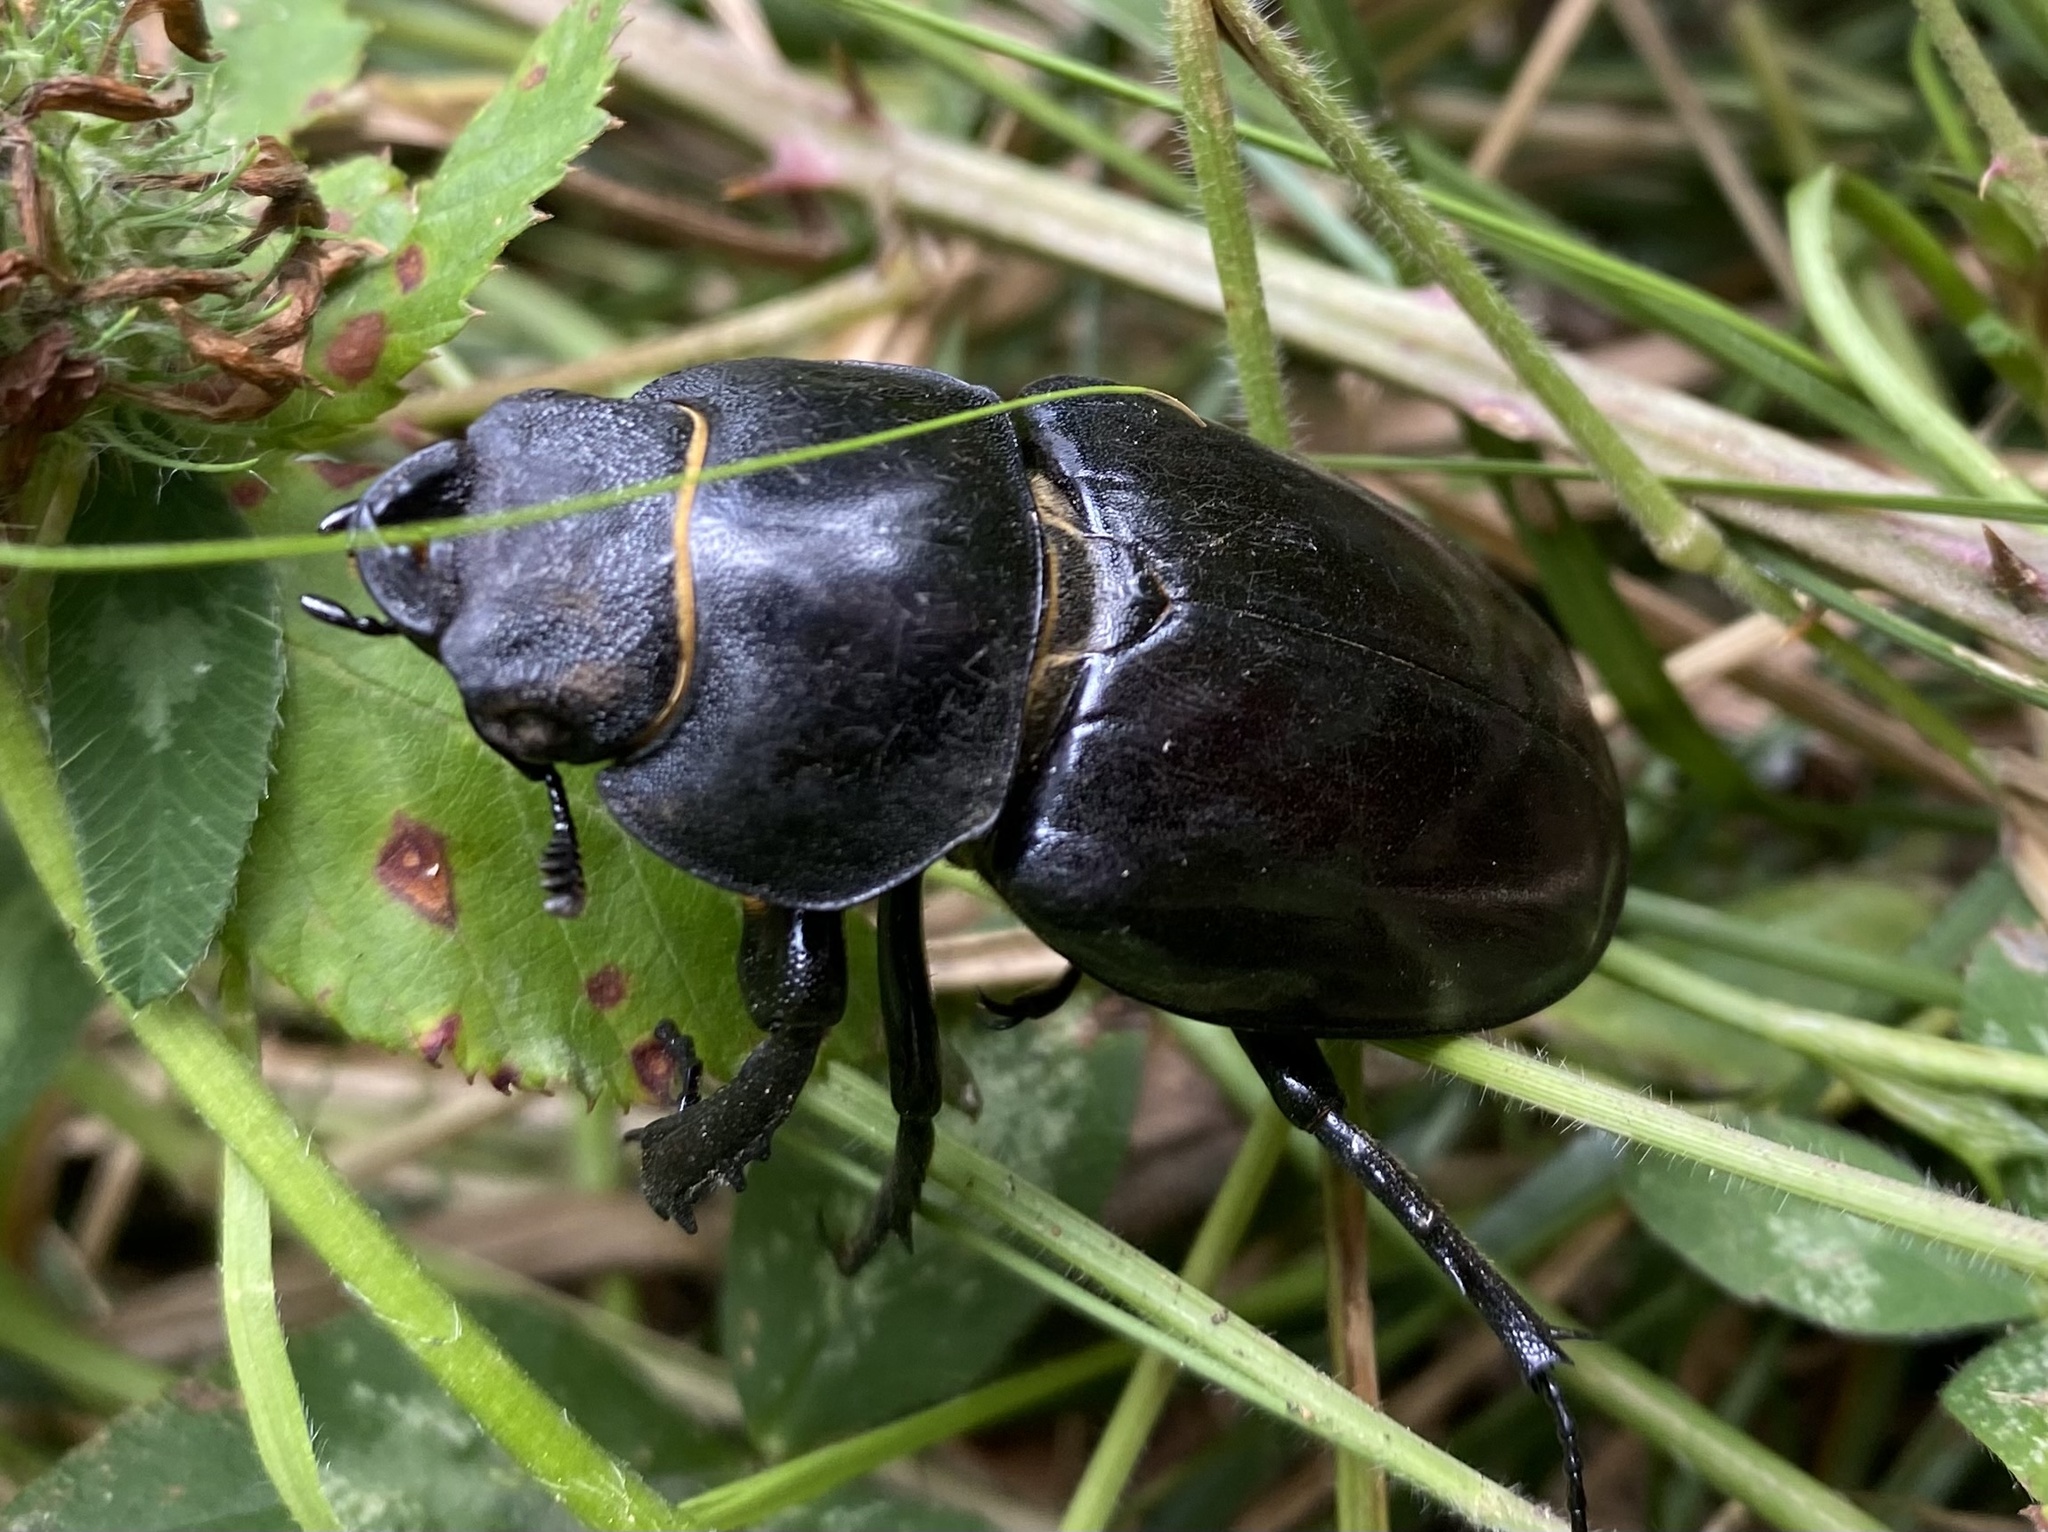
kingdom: Animalia
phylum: Arthropoda
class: Insecta
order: Coleoptera
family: Lucanidae
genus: Lucanus
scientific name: Lucanus cervus
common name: Stag beetle
